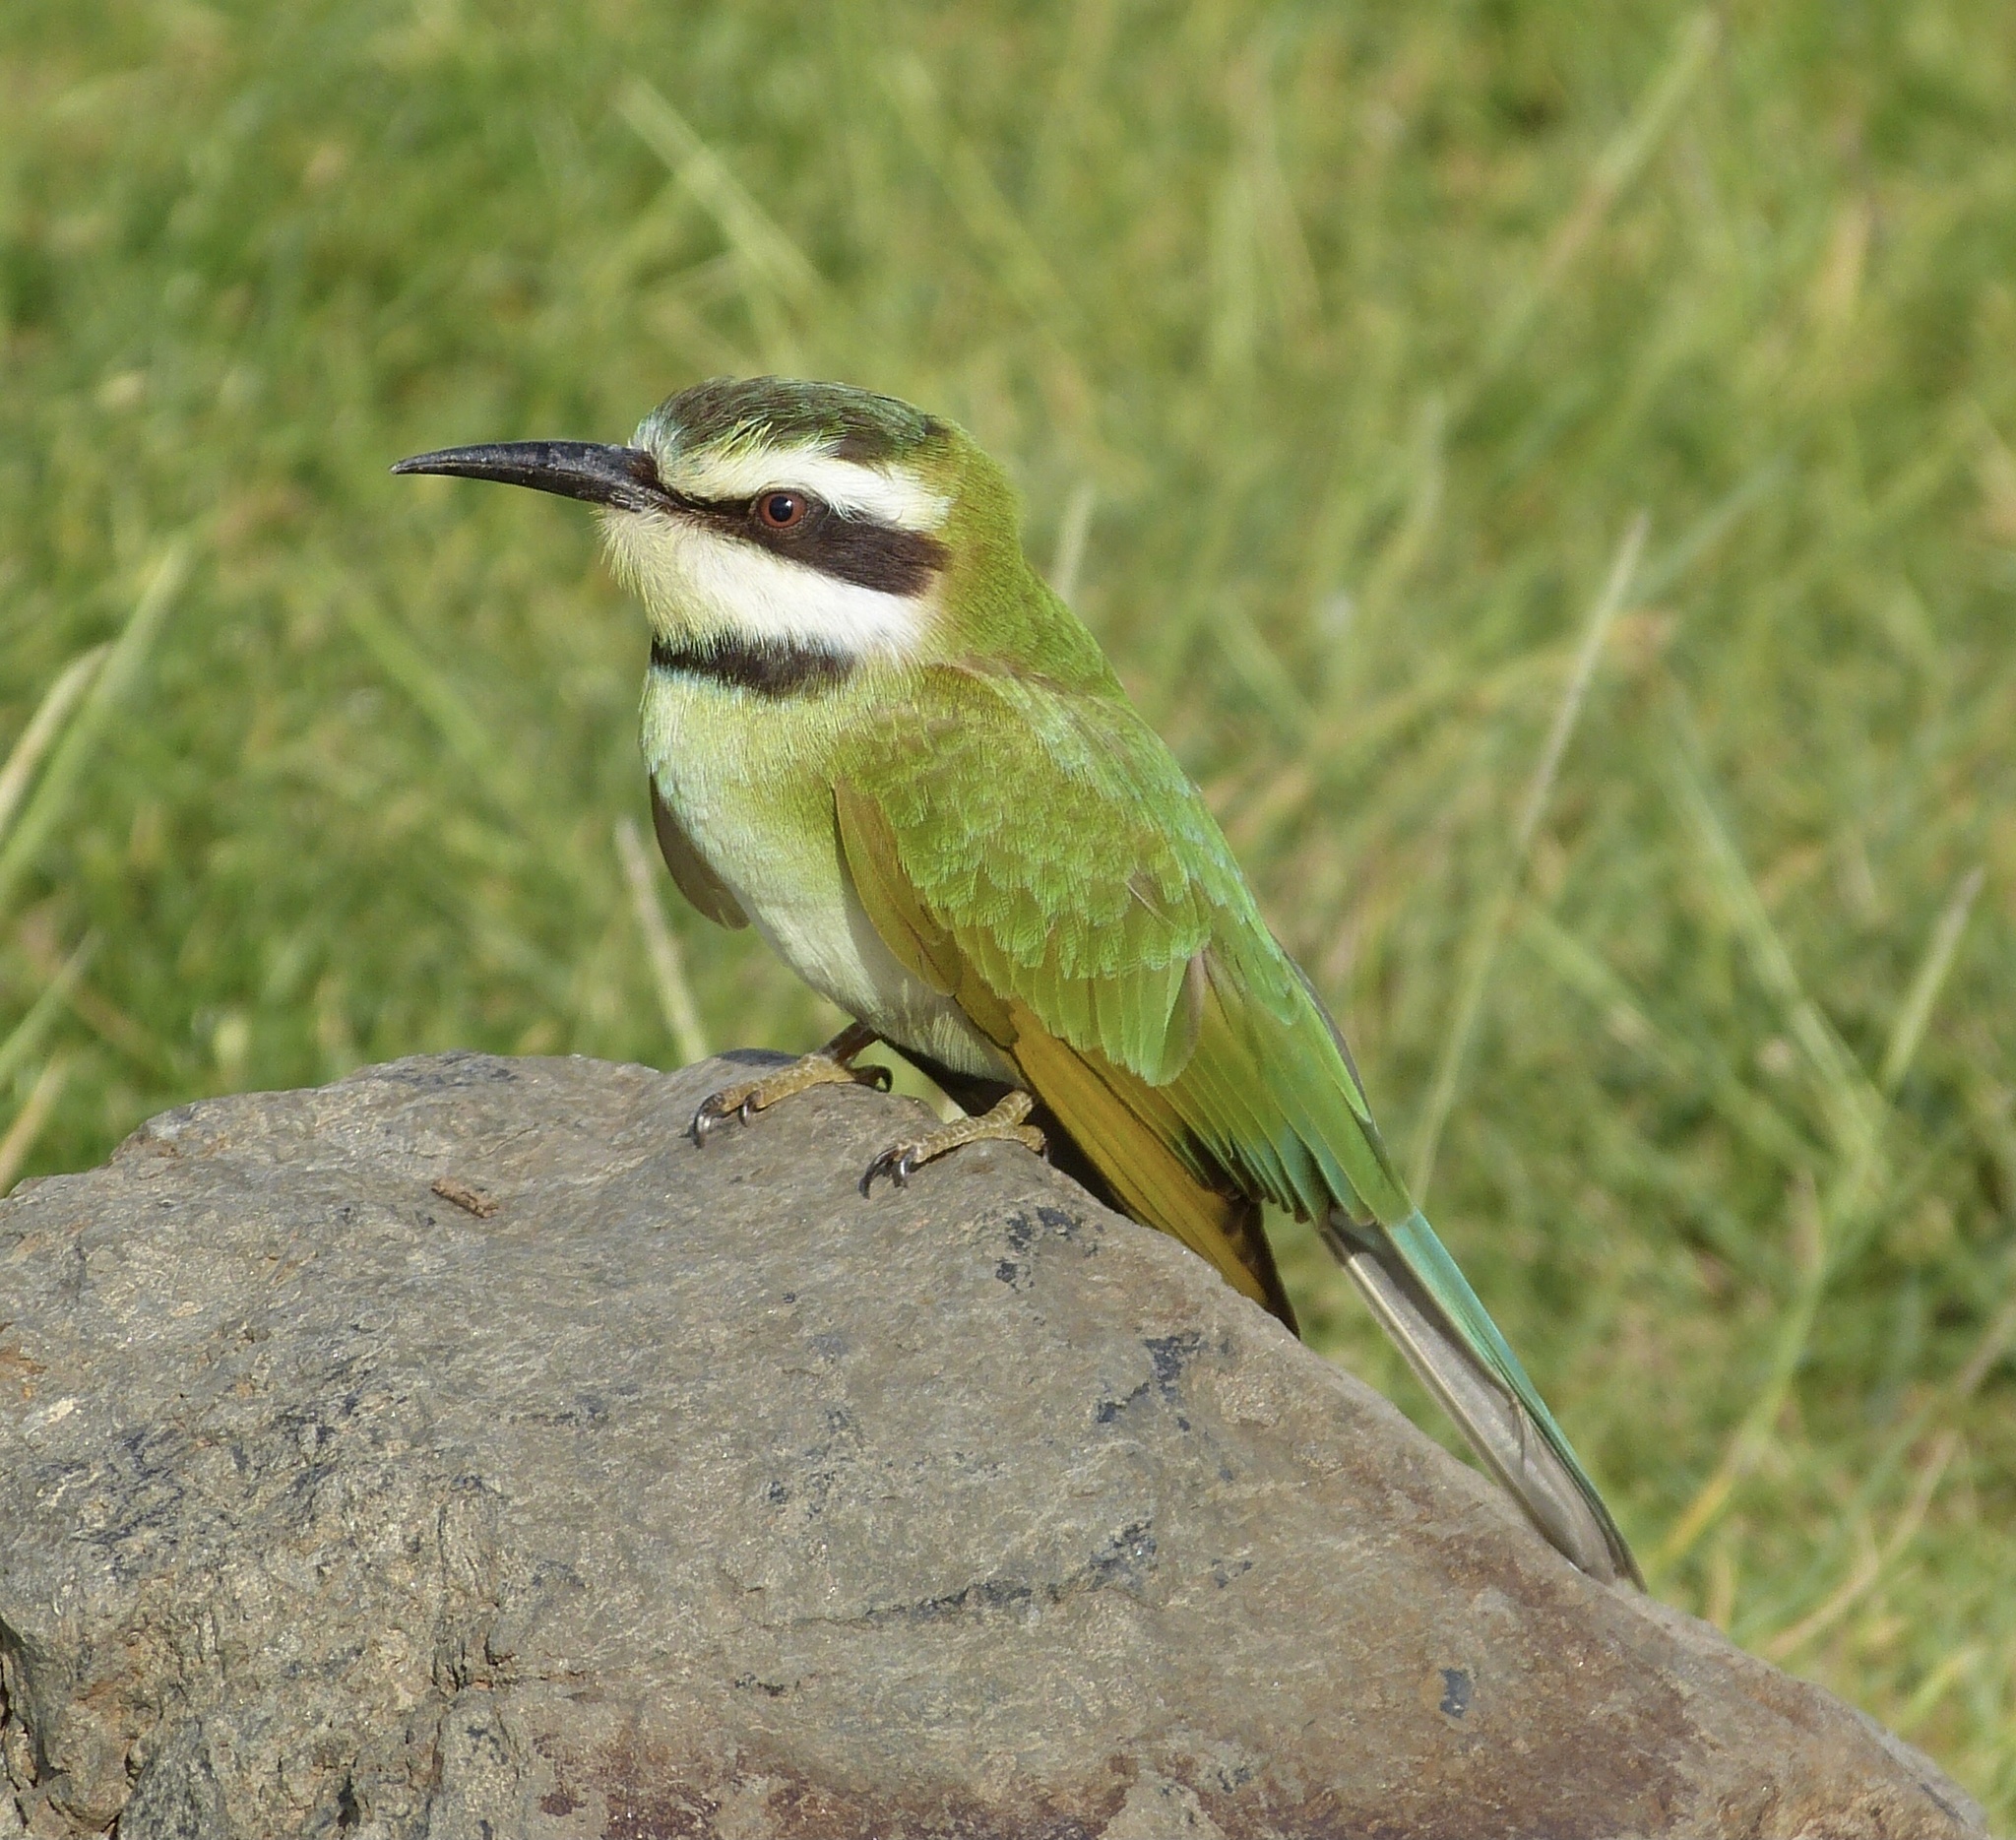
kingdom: Animalia
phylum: Chordata
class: Aves
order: Coraciiformes
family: Meropidae
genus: Merops
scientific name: Merops albicollis
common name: White-throated bee-eater
